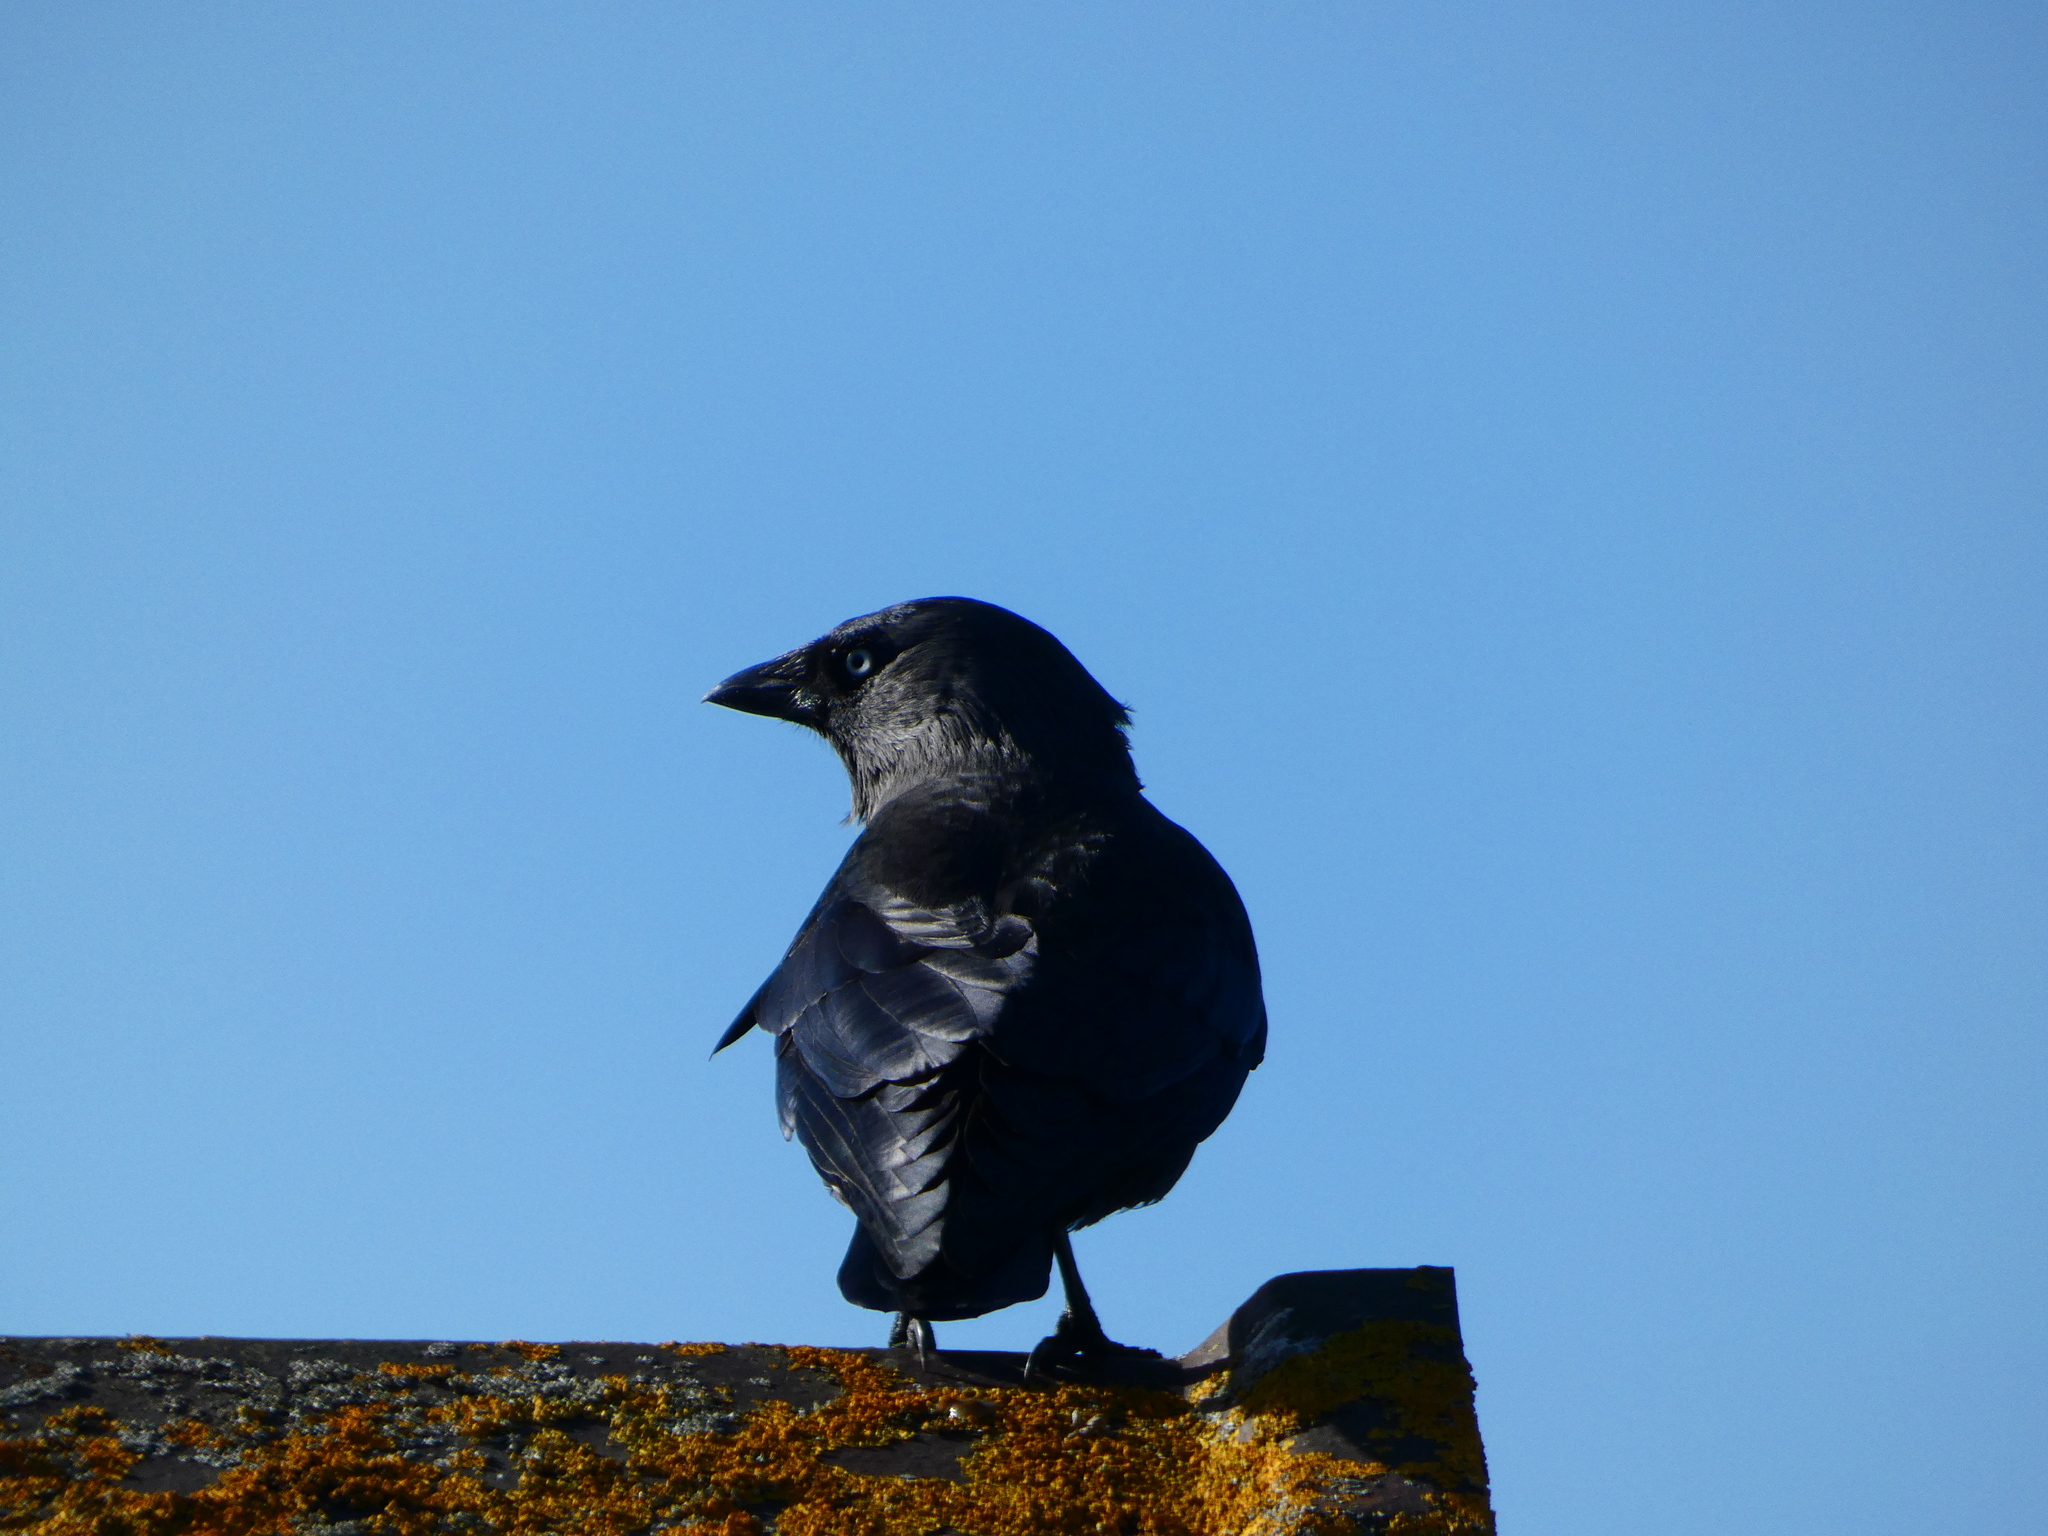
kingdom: Animalia
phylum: Chordata
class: Aves
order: Passeriformes
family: Corvidae
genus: Coloeus
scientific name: Coloeus monedula
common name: Western jackdaw
